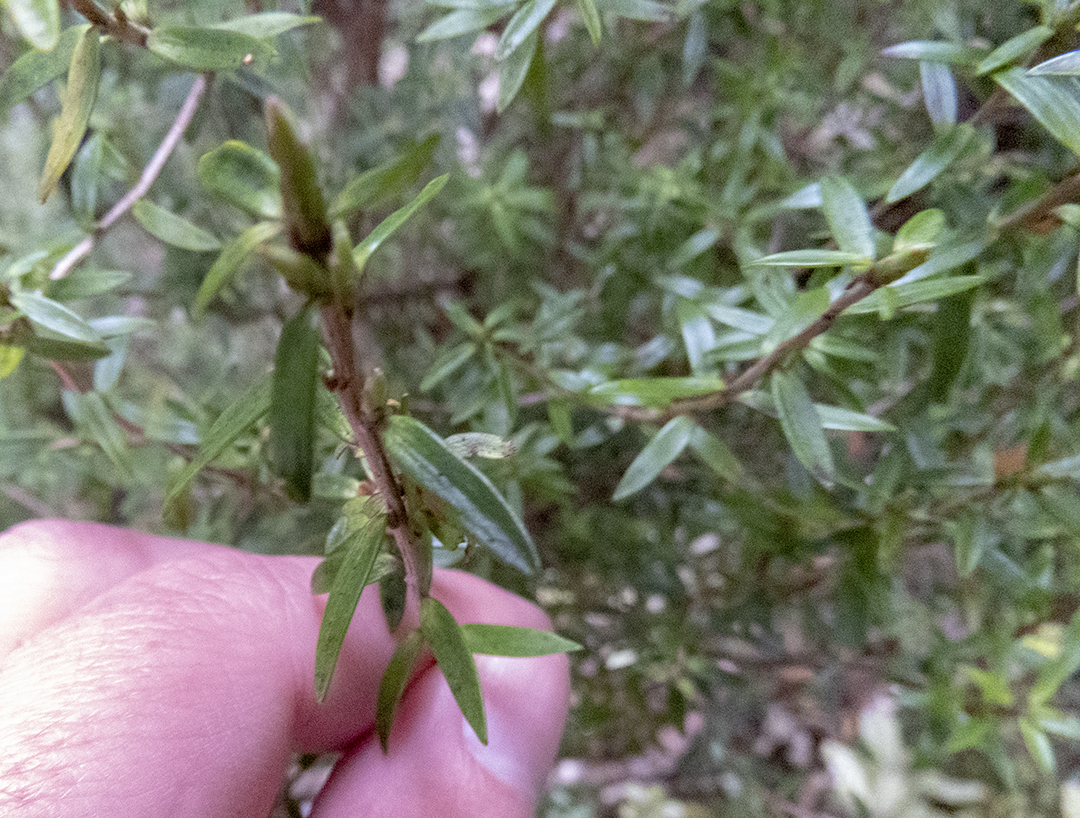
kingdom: Plantae
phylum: Tracheophyta
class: Magnoliopsida
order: Ericales
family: Ericaceae
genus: Archeria
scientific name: Archeria traversii
